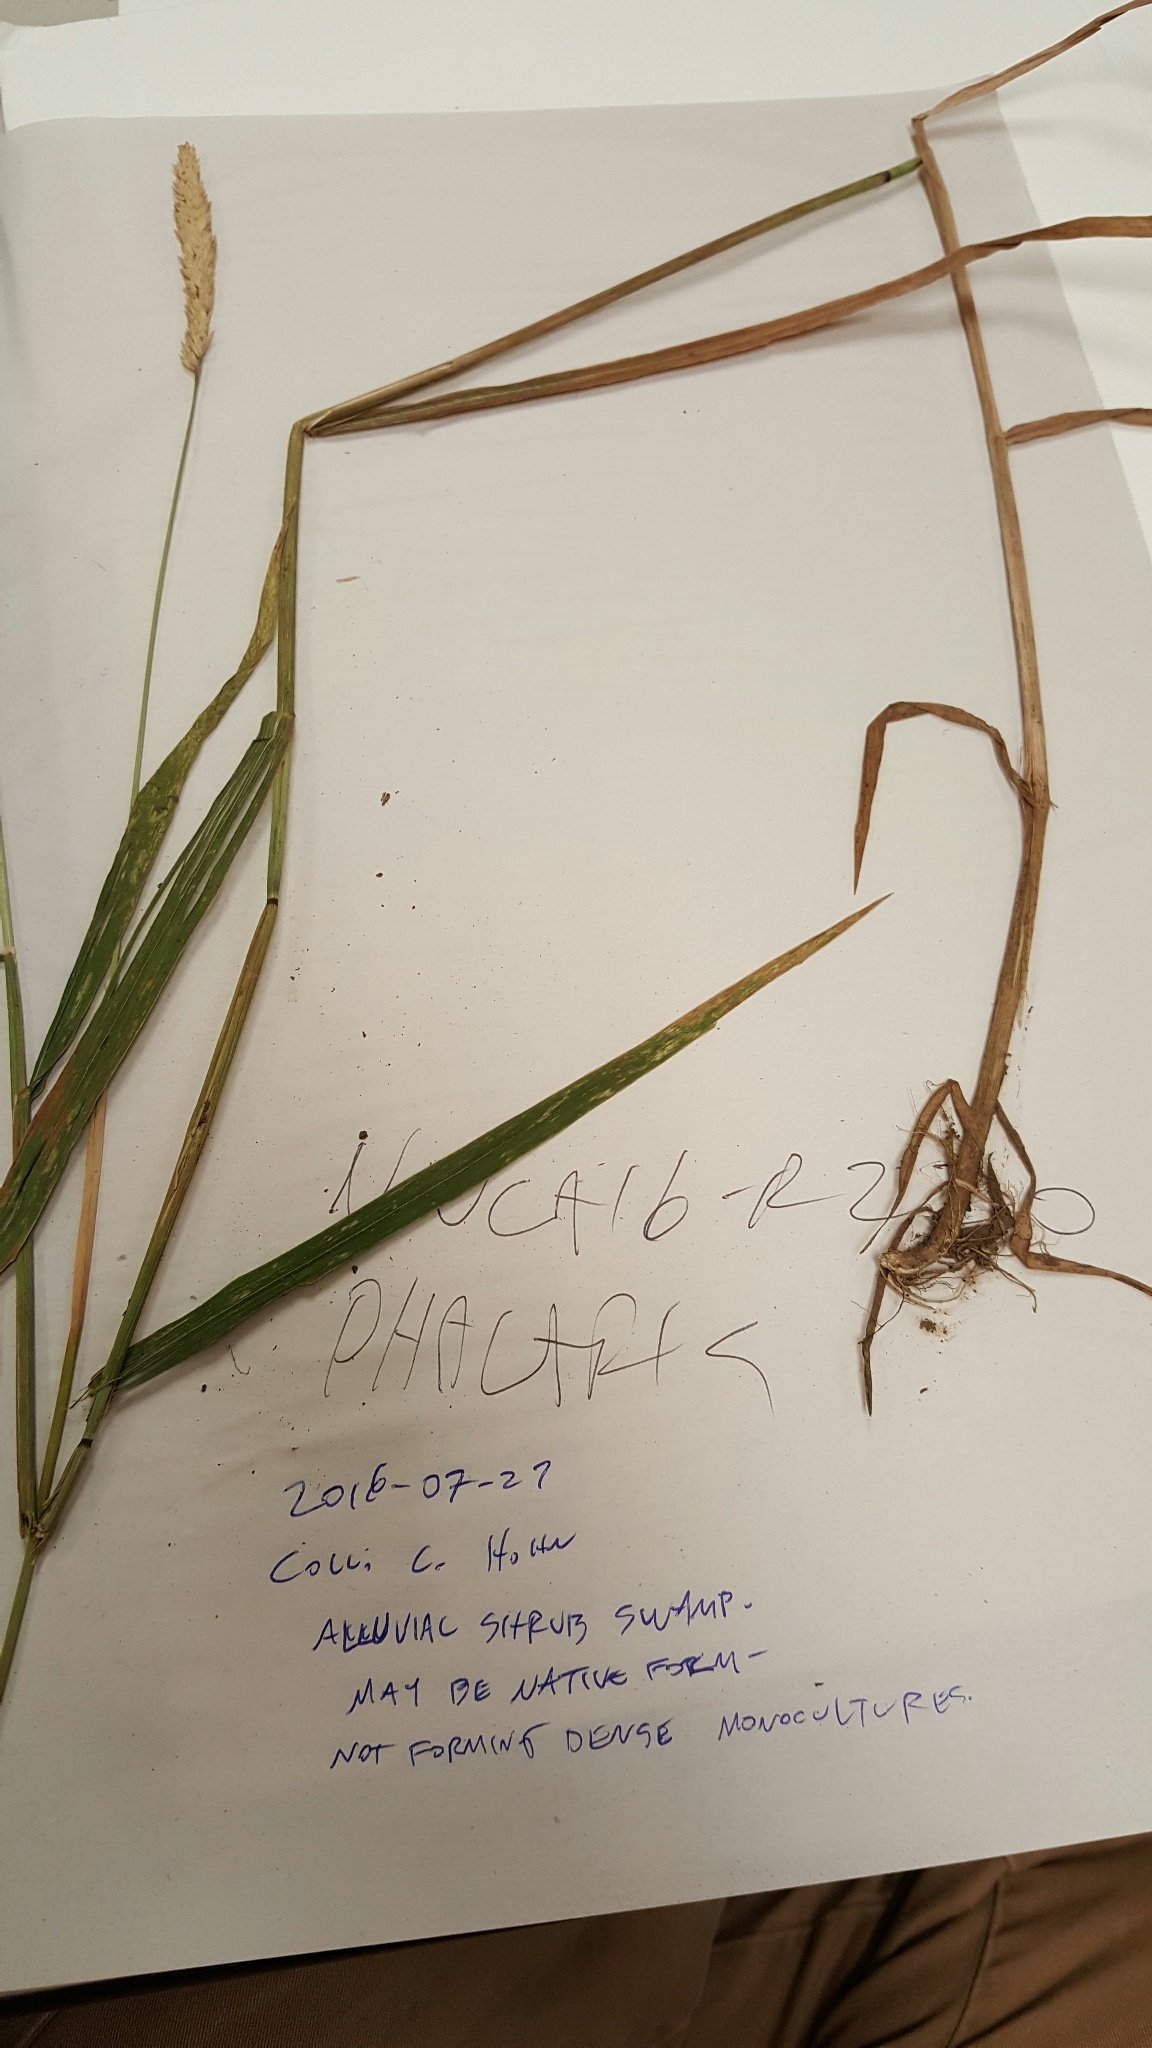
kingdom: Plantae
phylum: Tracheophyta
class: Liliopsida
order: Poales
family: Poaceae
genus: Phalaris
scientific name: Phalaris arundinacea
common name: Reed canary-grass
